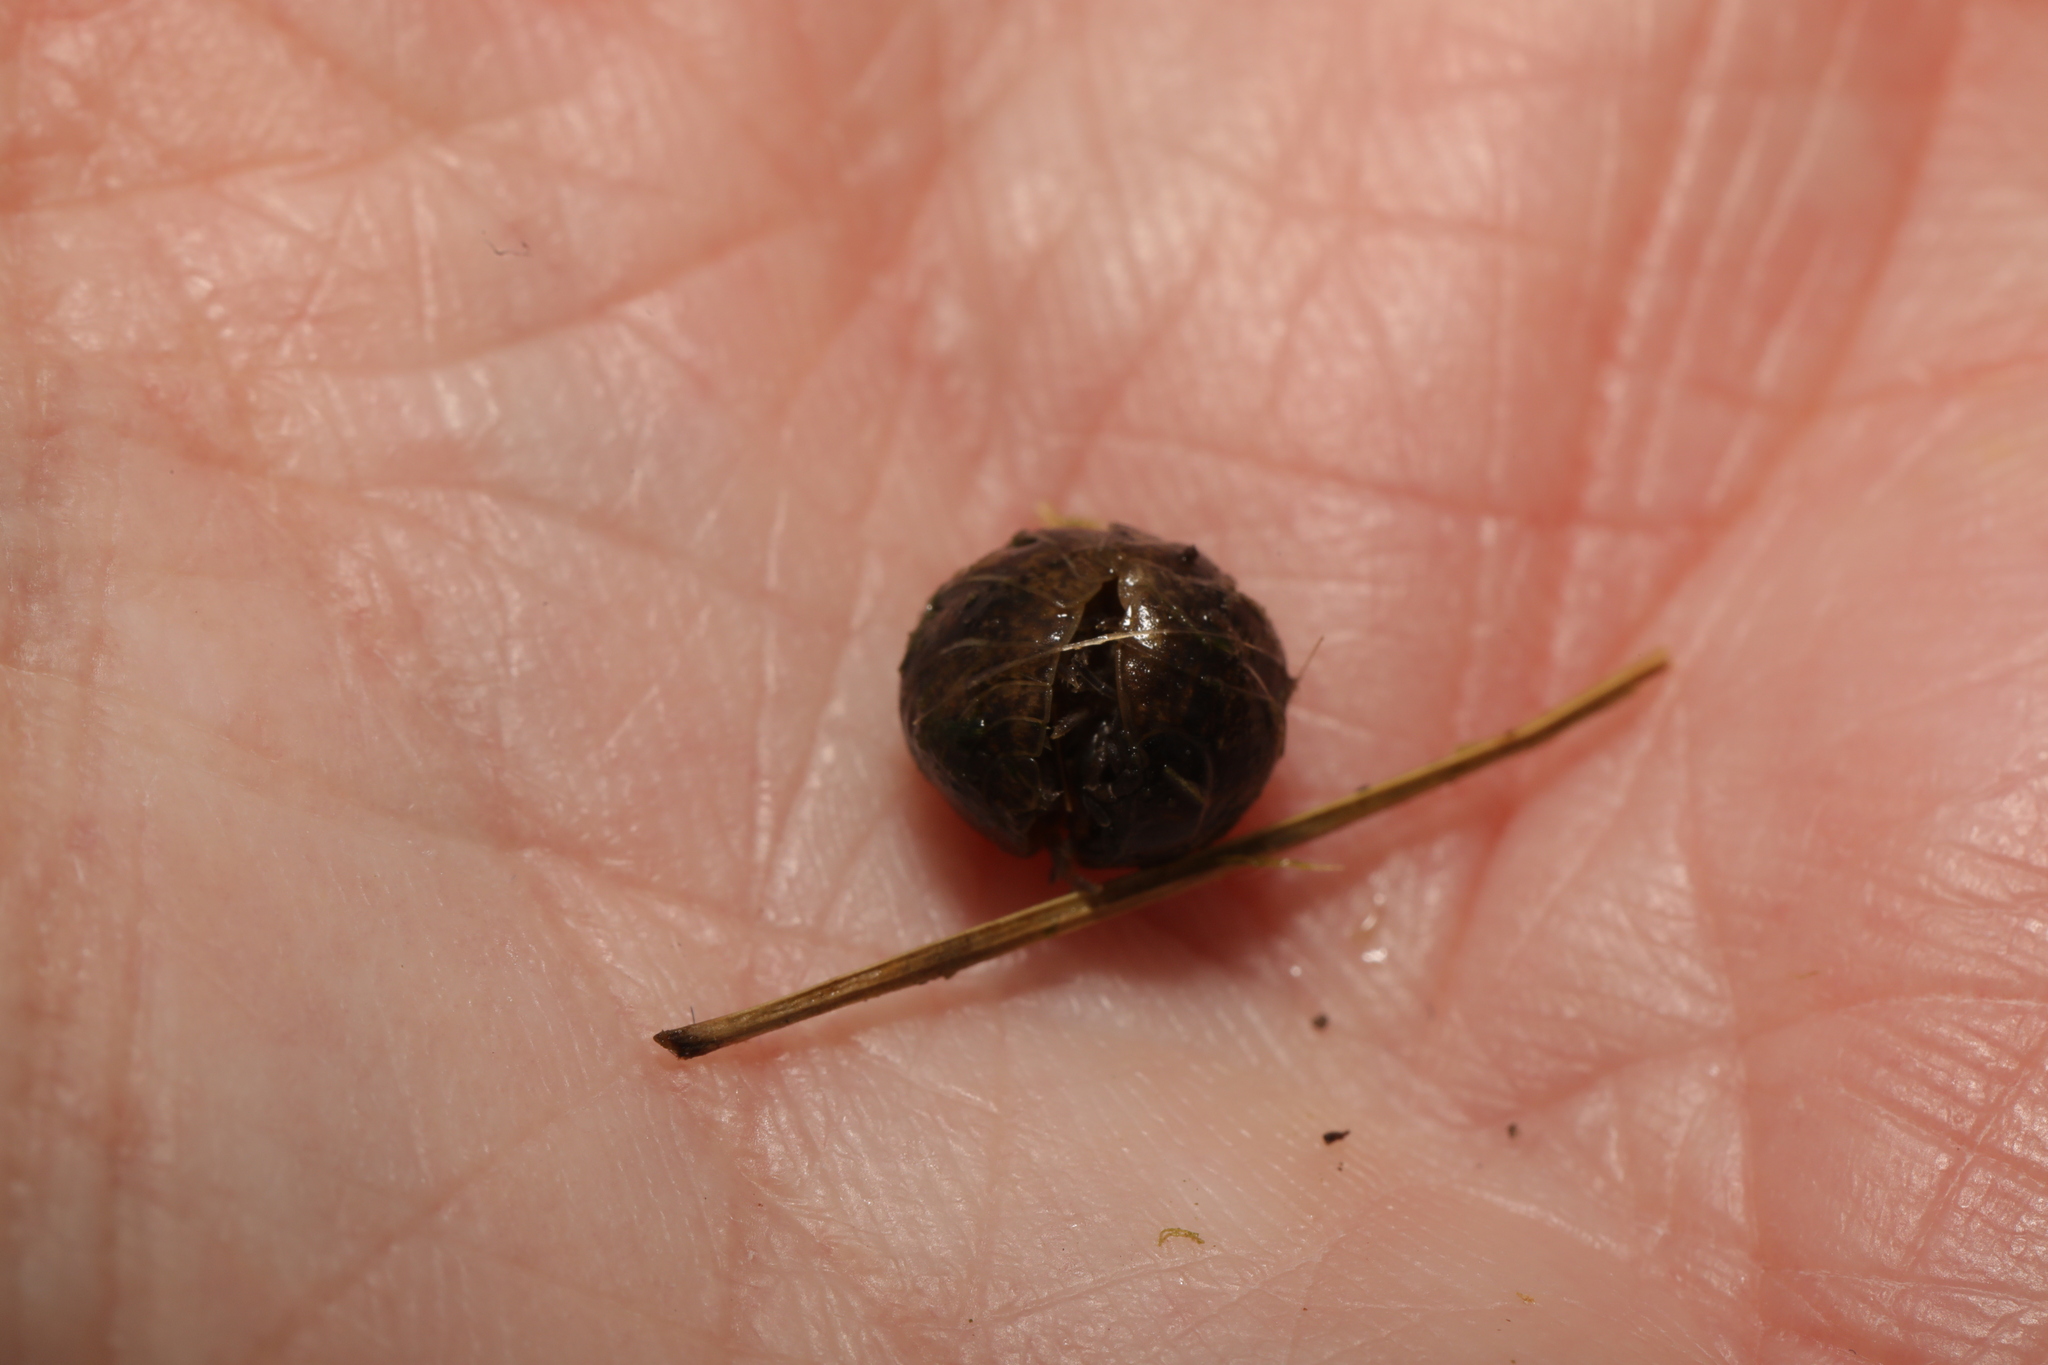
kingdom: Animalia
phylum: Arthropoda
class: Malacostraca
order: Isopoda
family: Armadillidiidae
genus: Armadillidium
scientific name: Armadillidium vulgare
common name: Common pill woodlouse
